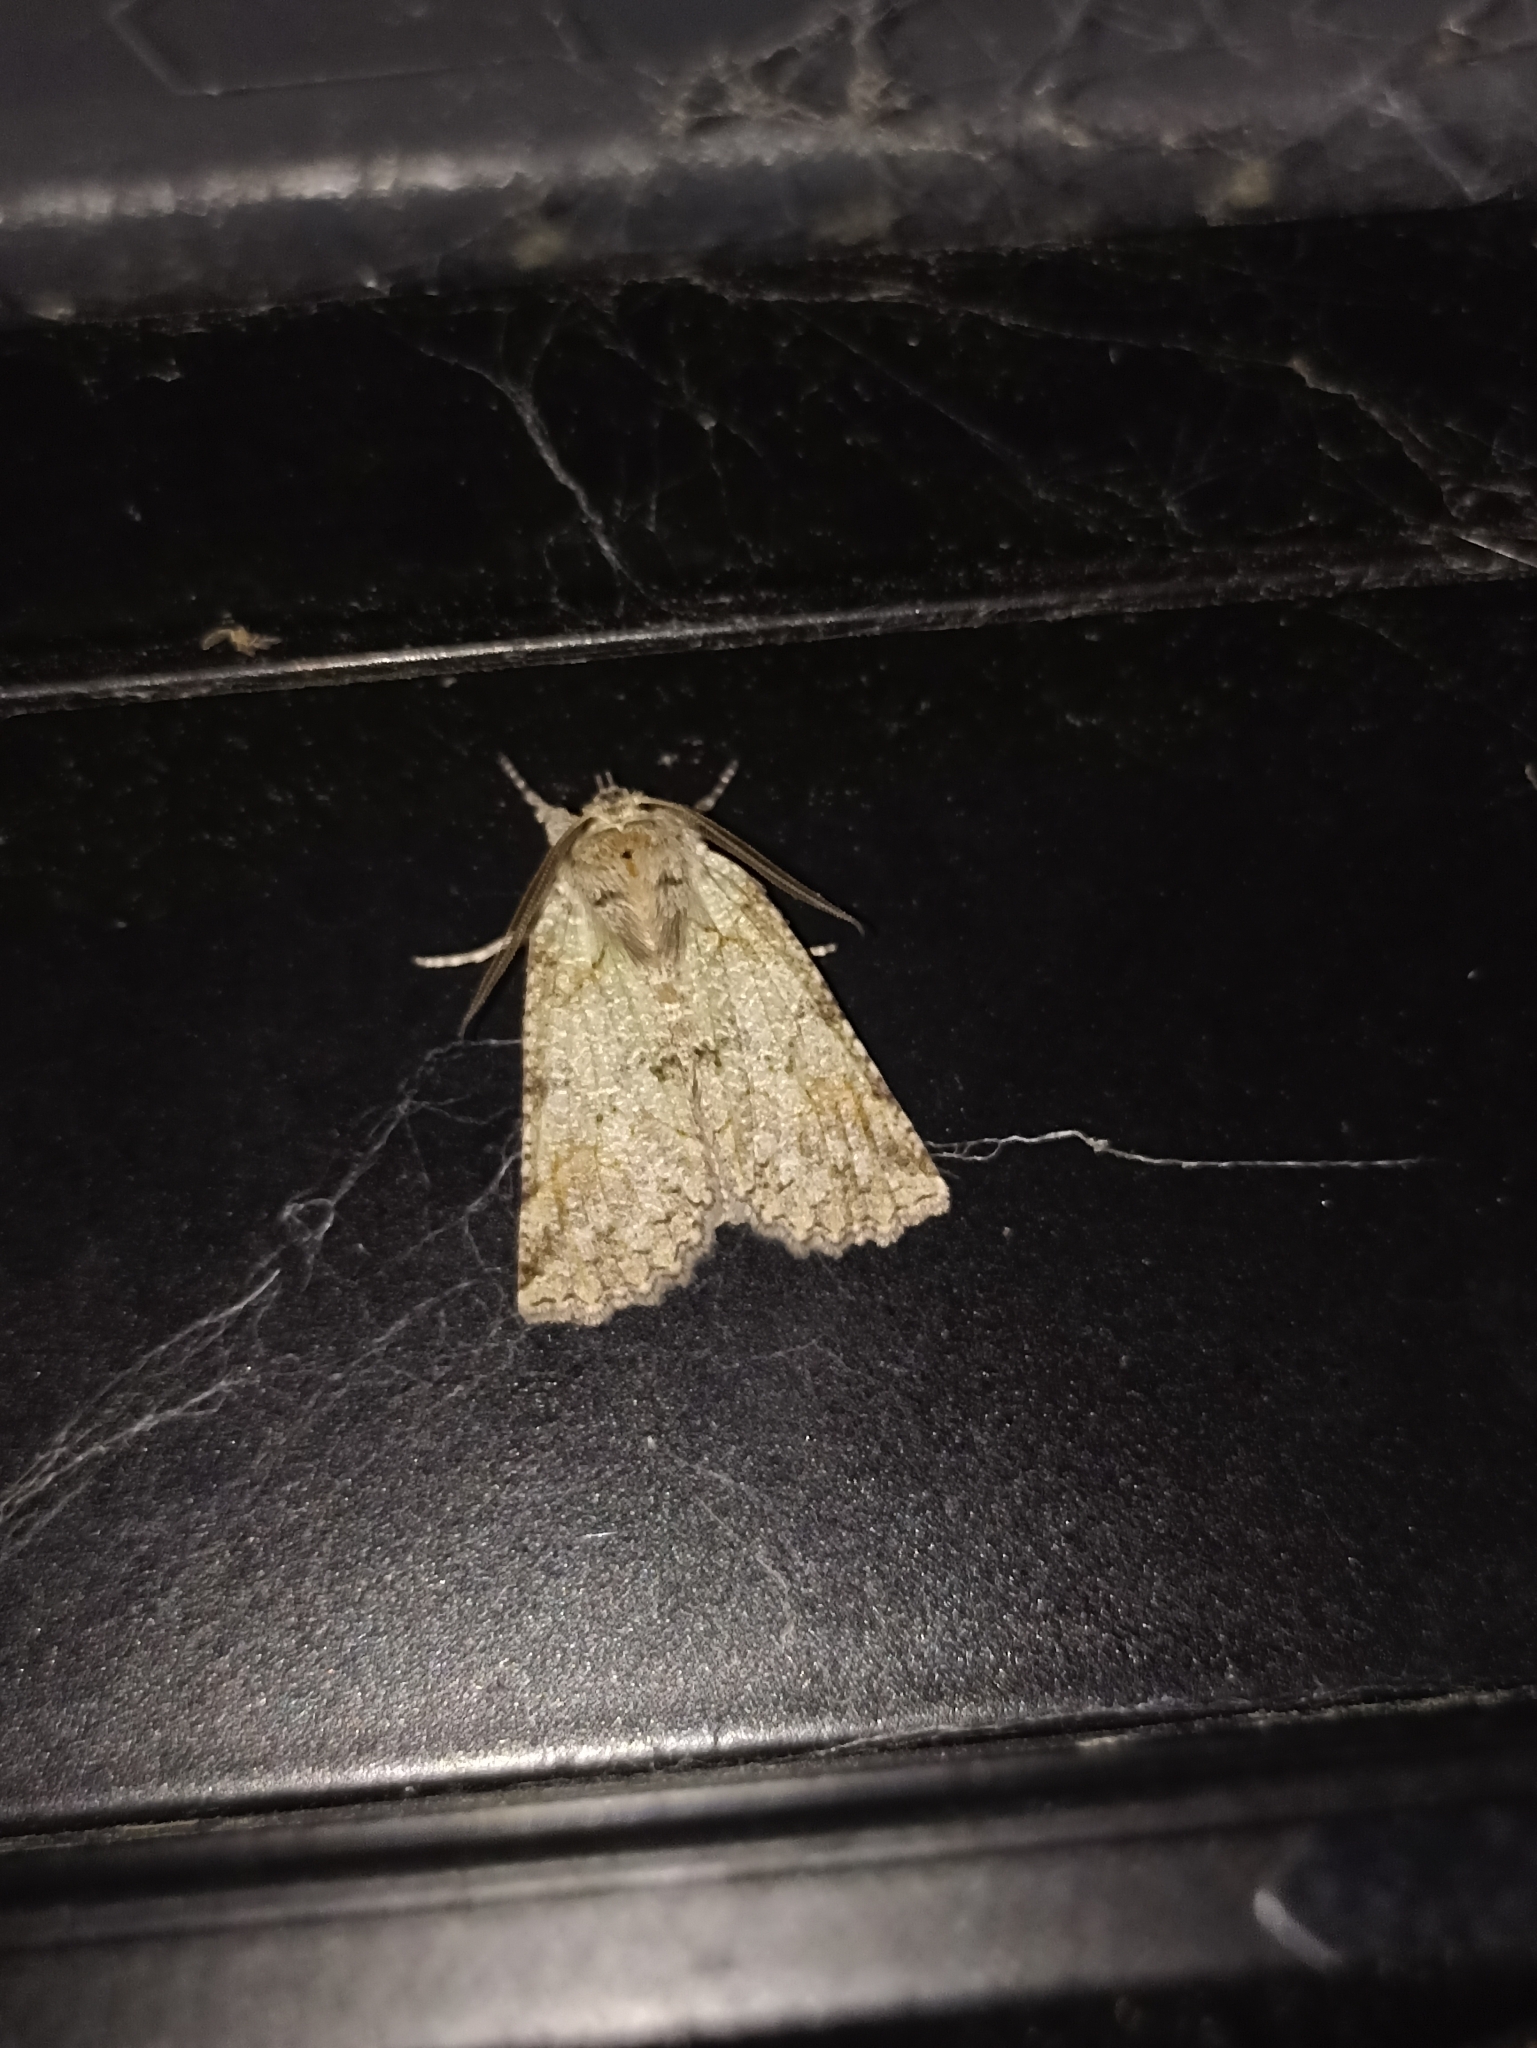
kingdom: Animalia
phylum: Arthropoda
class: Insecta
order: Lepidoptera
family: Geometridae
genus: Declana
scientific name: Declana floccosa
